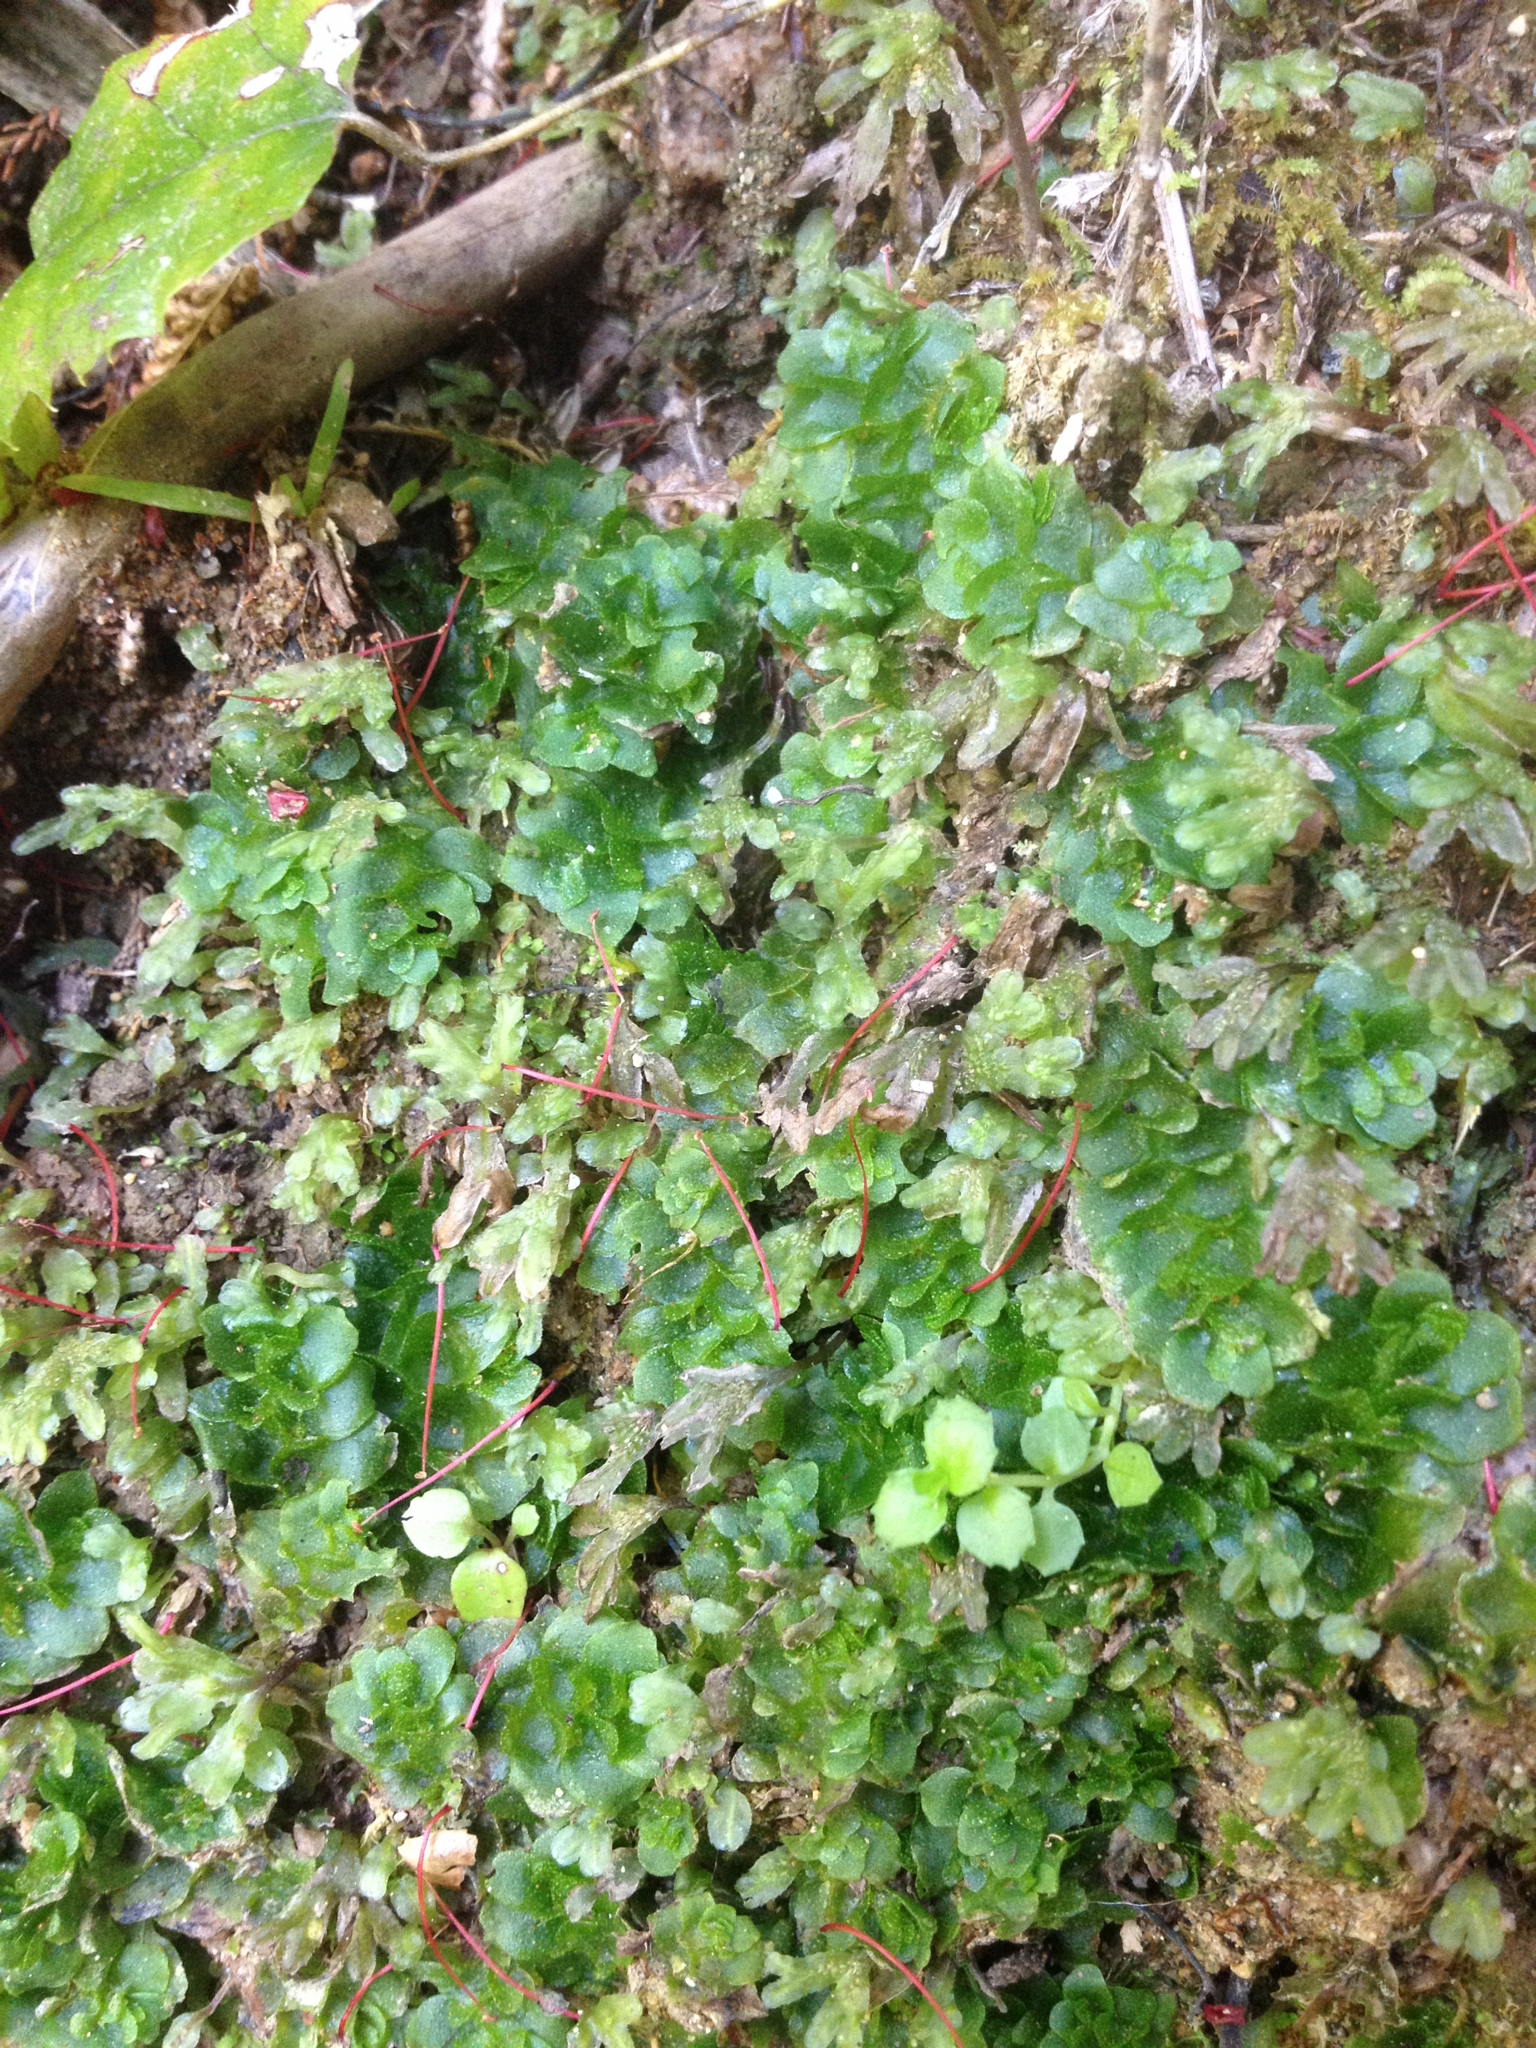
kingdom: Plantae
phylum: Marchantiophyta
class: Haplomitriopsida
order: Treubiales
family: Treubiaceae
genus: Treubia
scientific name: Treubia lacunosa
